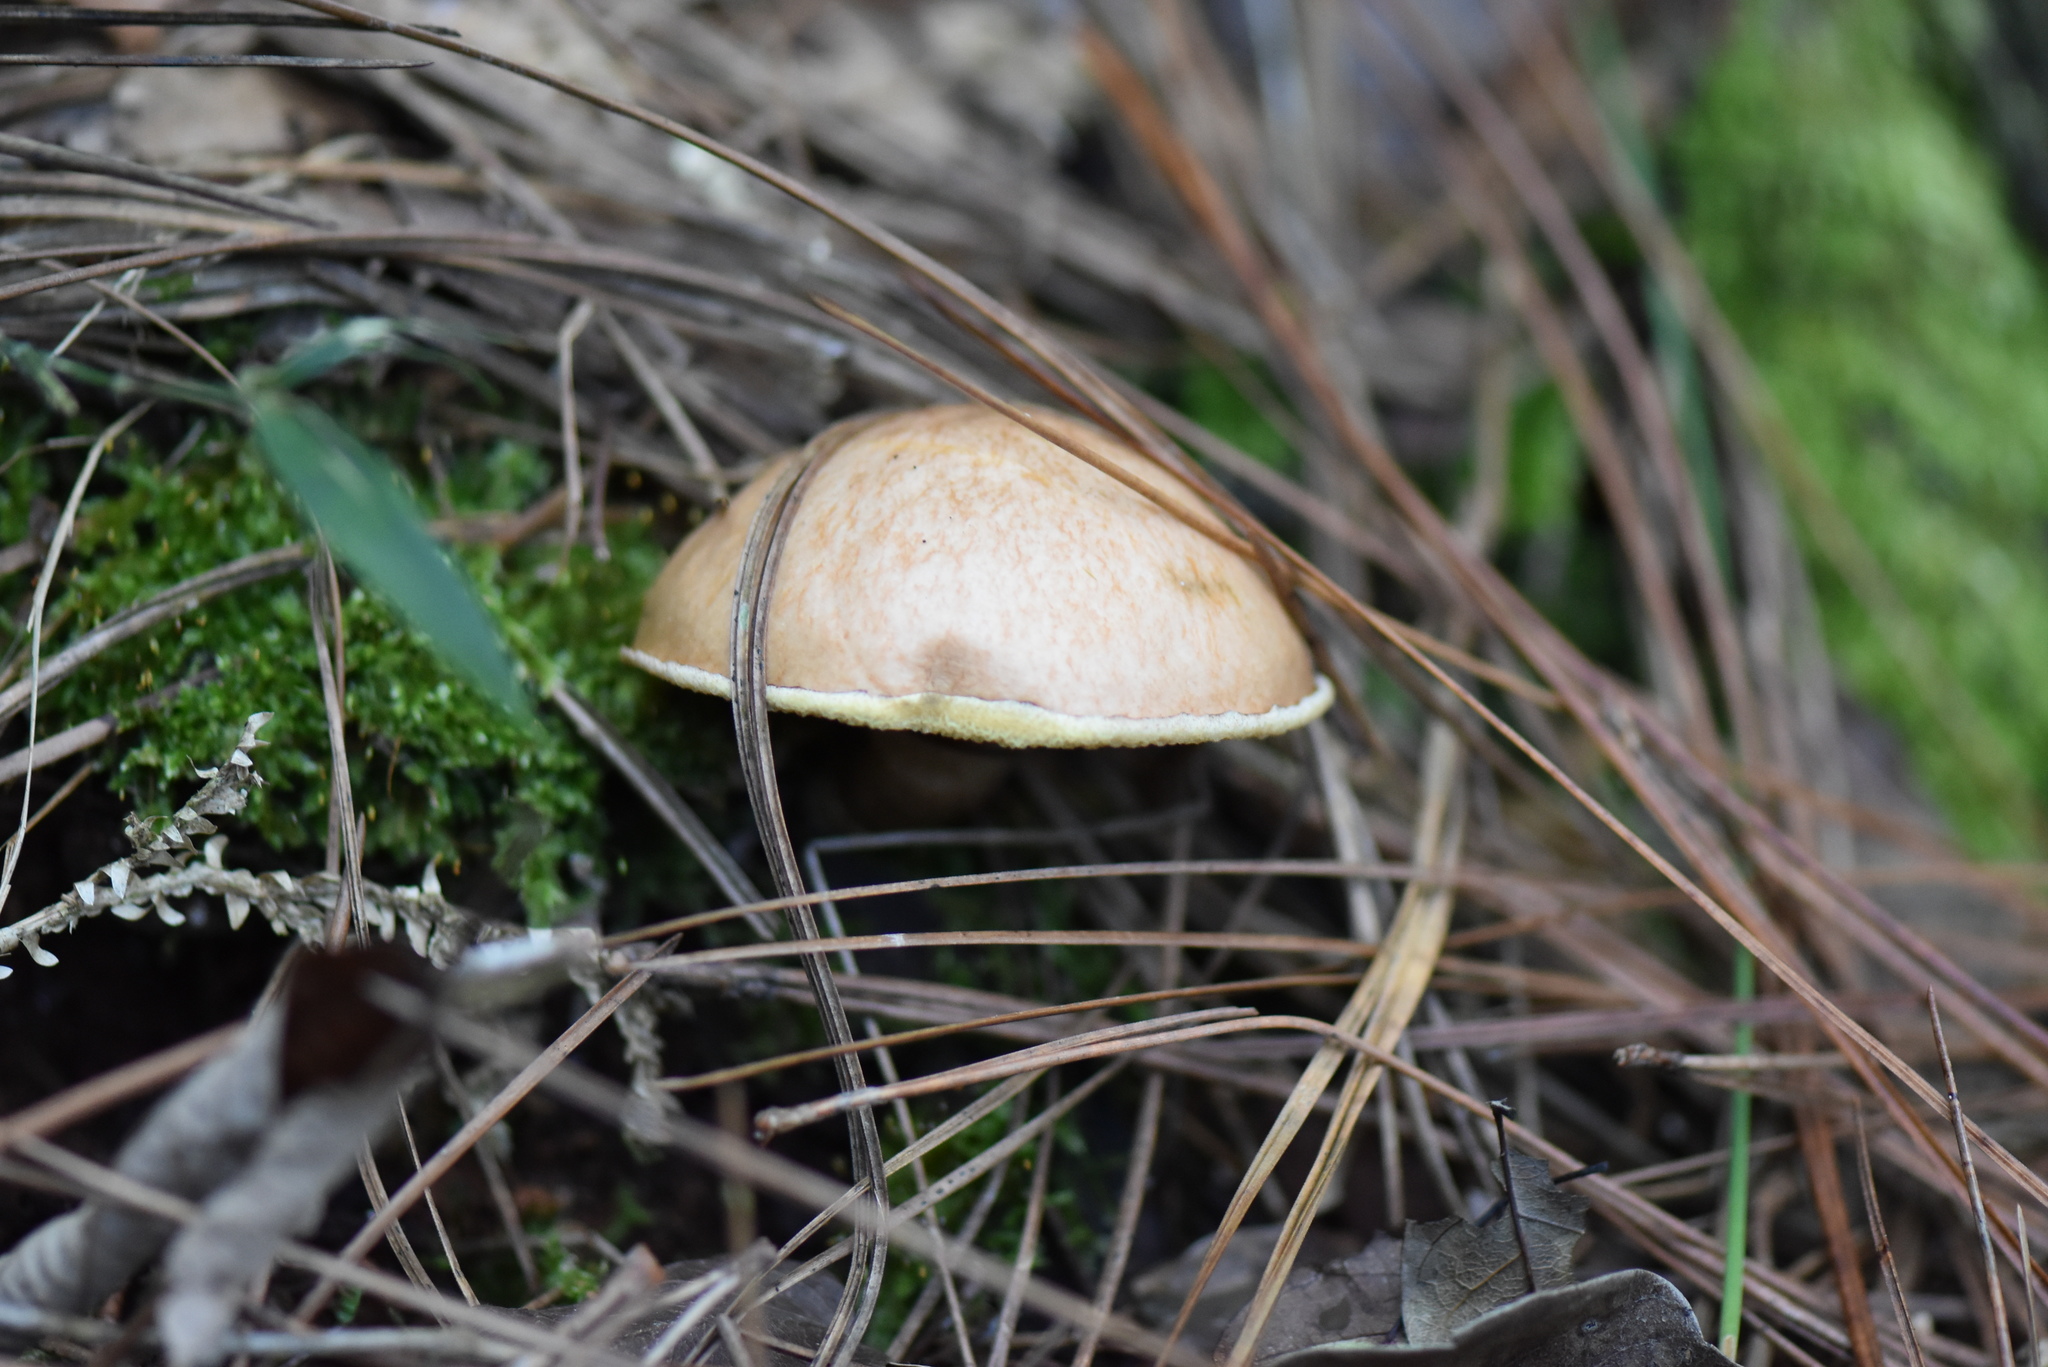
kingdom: Fungi
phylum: Basidiomycota
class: Agaricomycetes
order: Boletales
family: Suillaceae
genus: Suillus
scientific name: Suillus granulatus
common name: Weeping bolete
